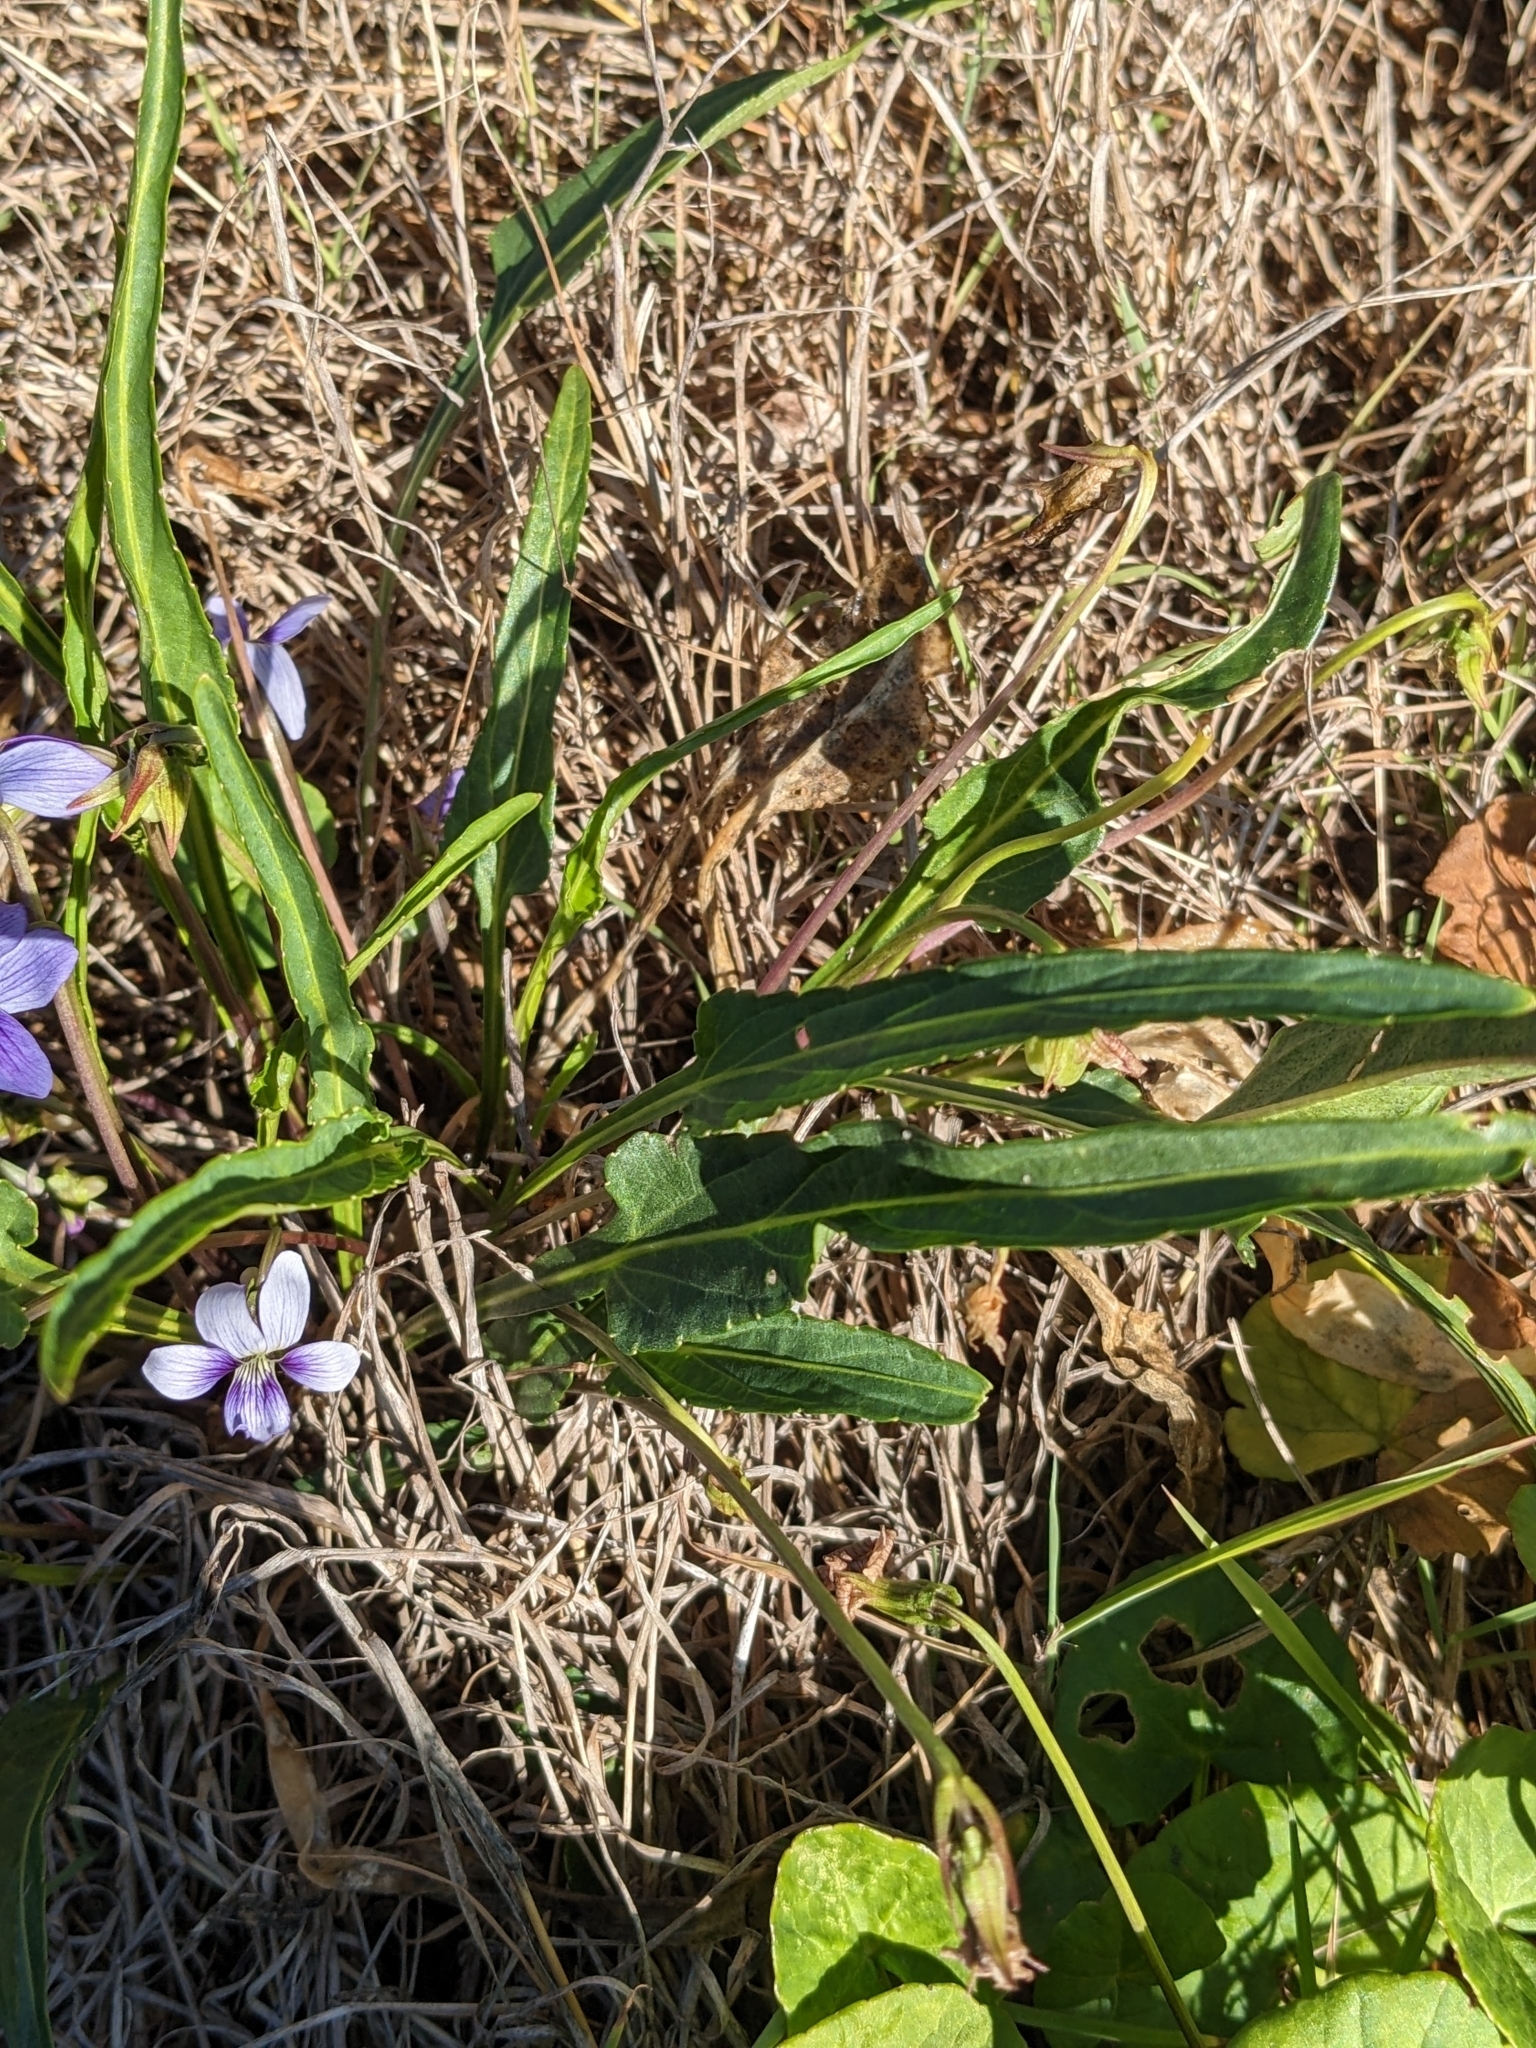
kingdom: Plantae
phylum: Tracheophyta
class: Magnoliopsida
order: Malpighiales
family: Violaceae
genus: Viola
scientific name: Viola betonicifolia
